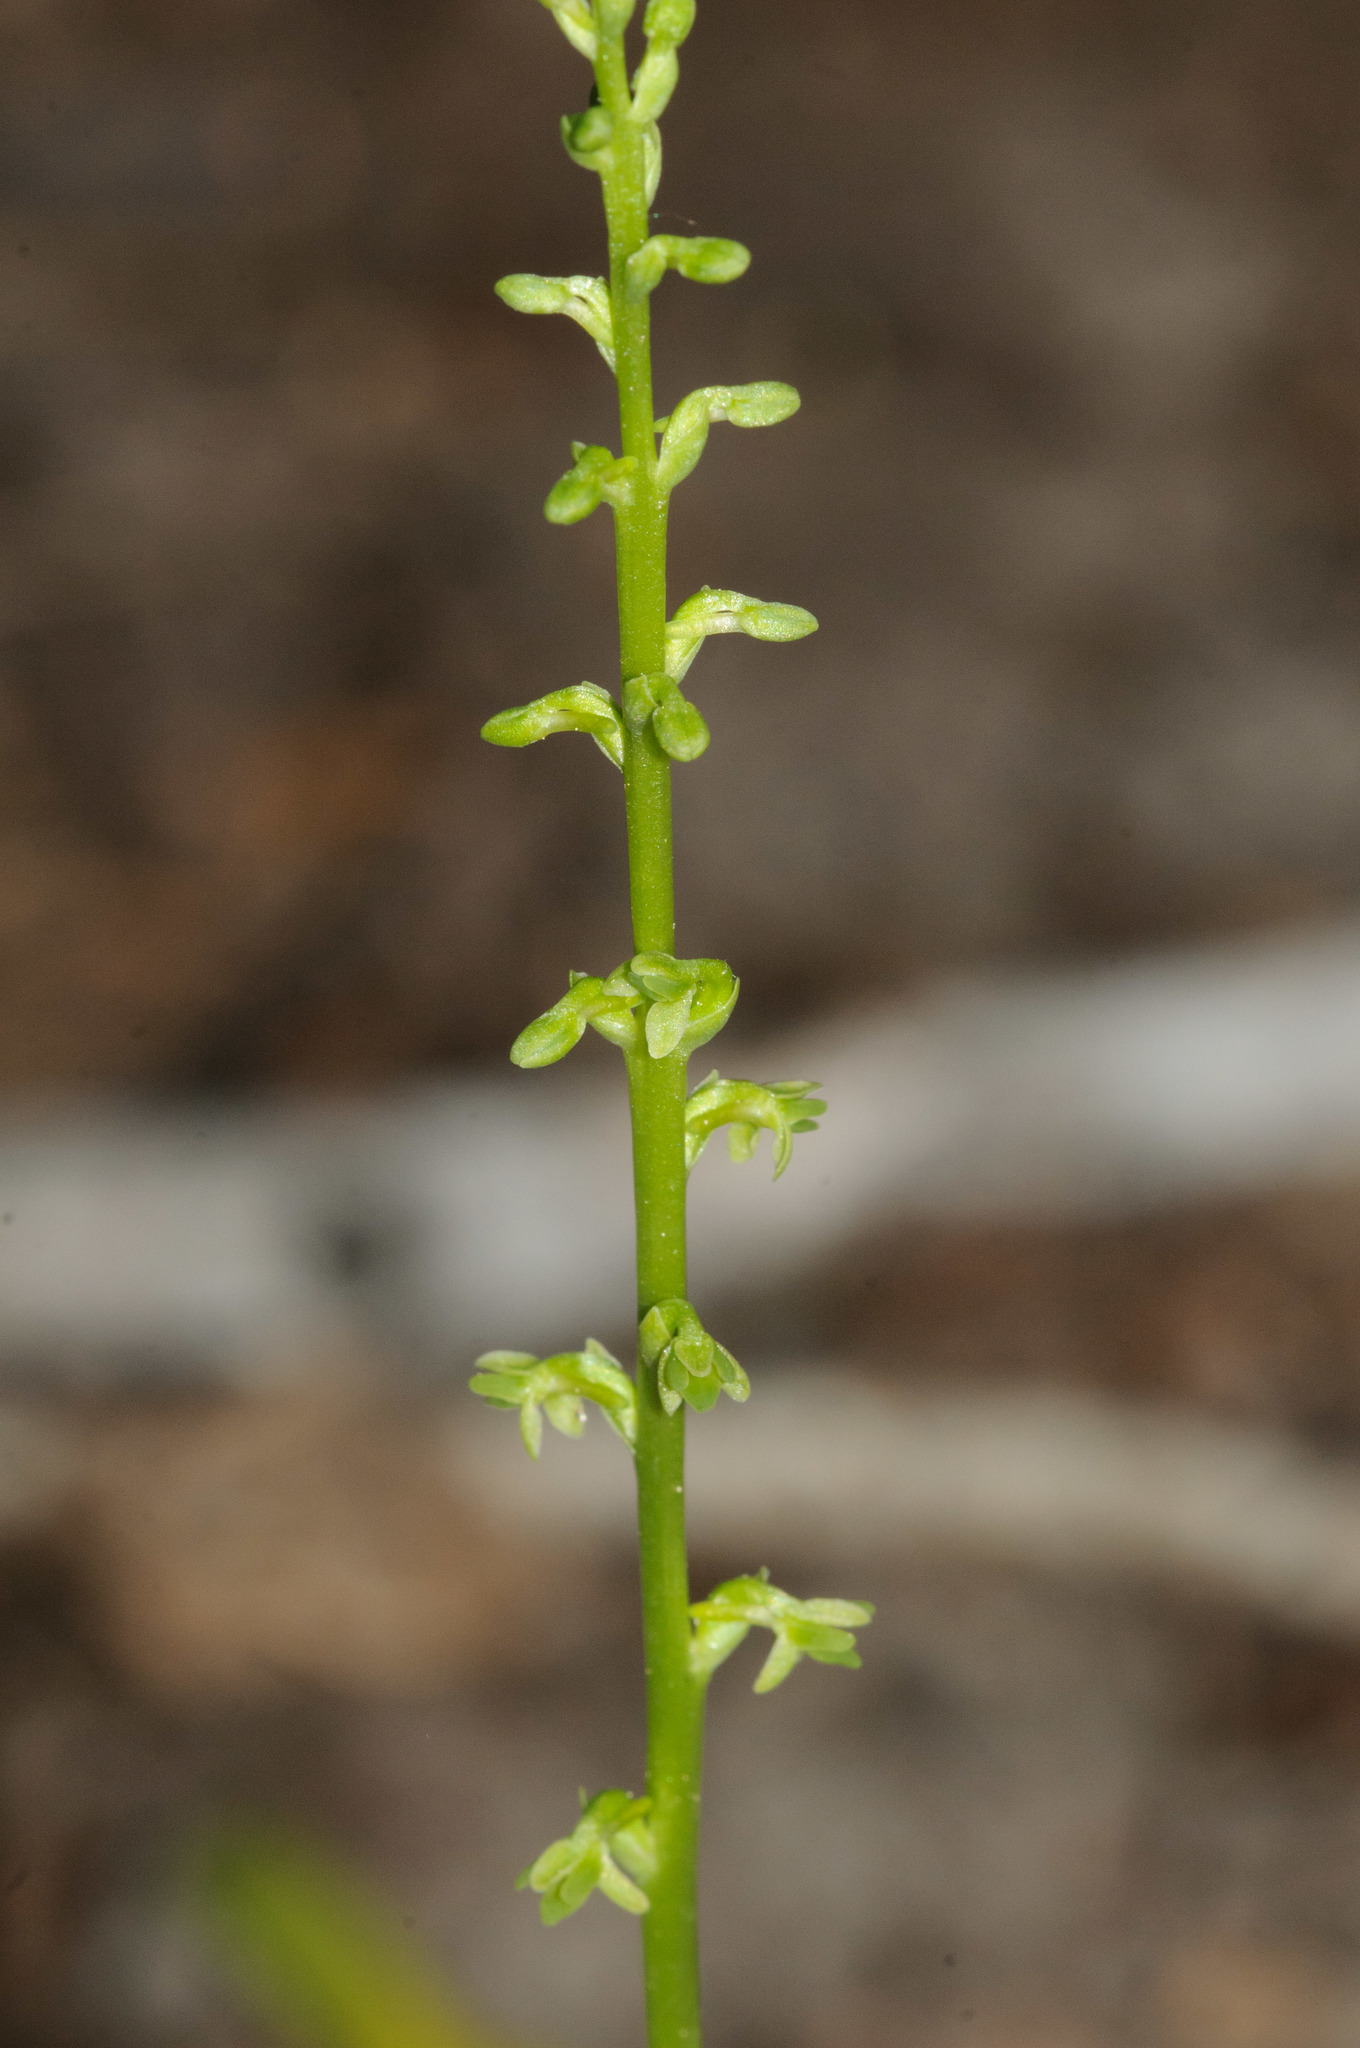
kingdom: Plantae
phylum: Tracheophyta
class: Liliopsida
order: Asparagales
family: Orchidaceae
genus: Platanthera
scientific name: Platanthera unalascensis
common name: Alaska bog orchid
